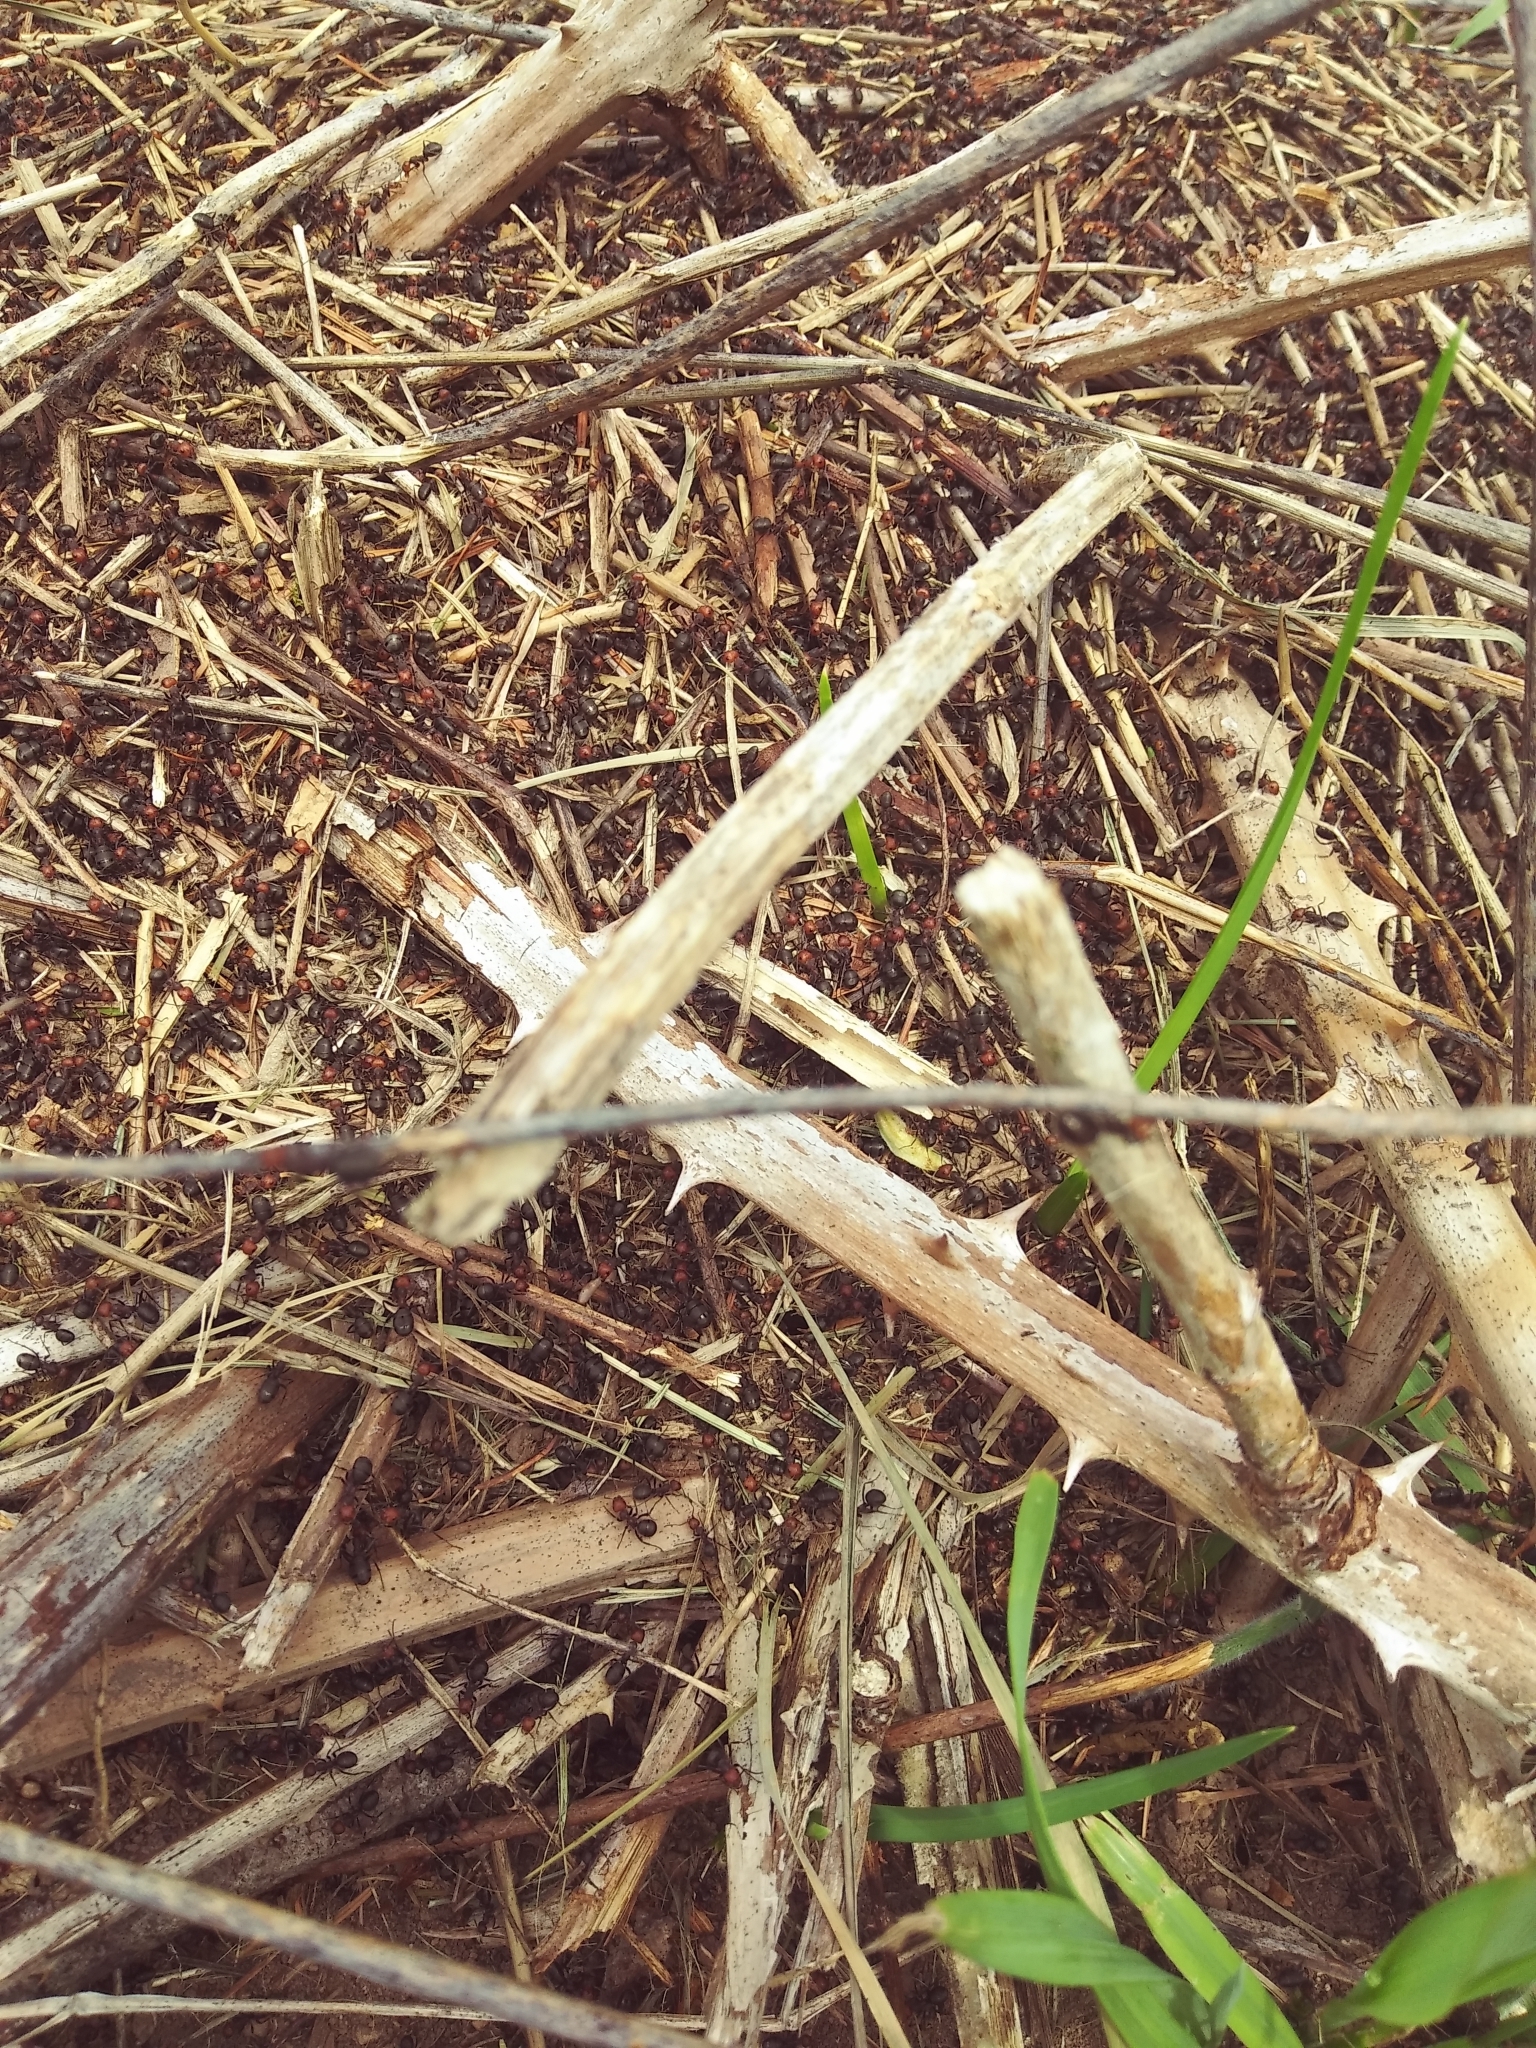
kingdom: Animalia
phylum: Arthropoda
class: Insecta
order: Hymenoptera
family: Formicidae
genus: Formica
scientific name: Formica obscuripes
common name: Western thatching ant
